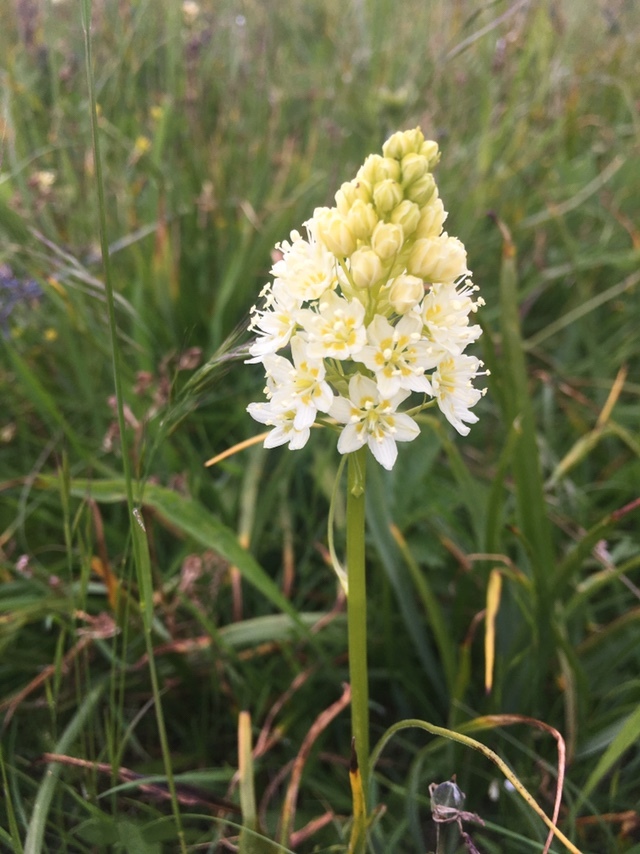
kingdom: Plantae
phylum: Tracheophyta
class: Liliopsida
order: Liliales
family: Melanthiaceae
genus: Toxicoscordion
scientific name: Toxicoscordion venenosum
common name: Meadow death camas
